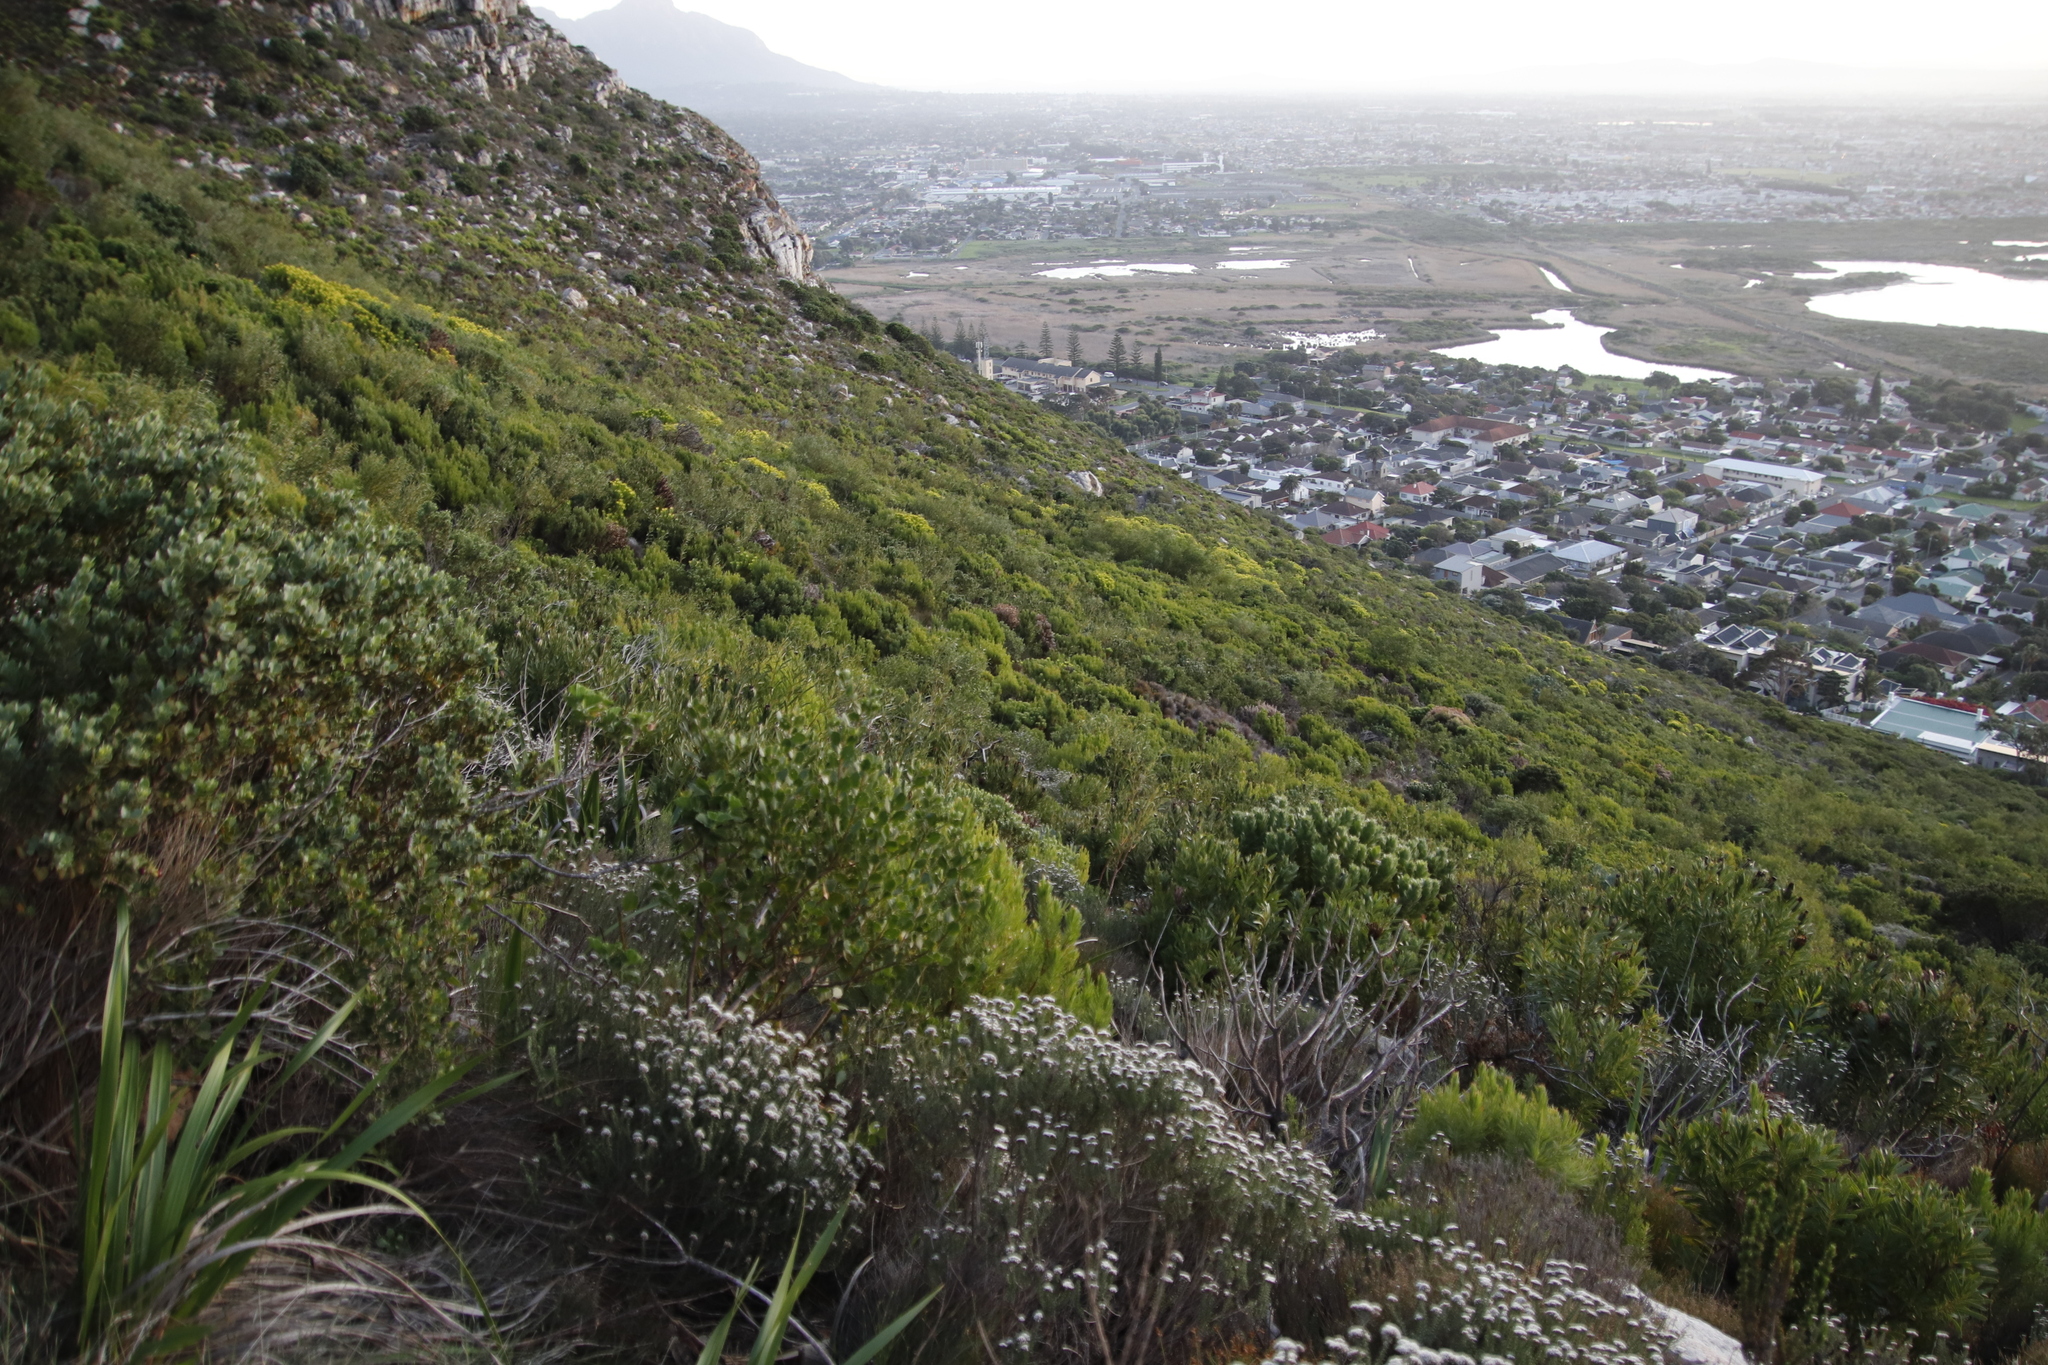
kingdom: Plantae
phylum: Tracheophyta
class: Magnoliopsida
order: Proteales
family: Proteaceae
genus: Protea
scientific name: Protea lepidocarpodendron
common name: Black-bearded protea
